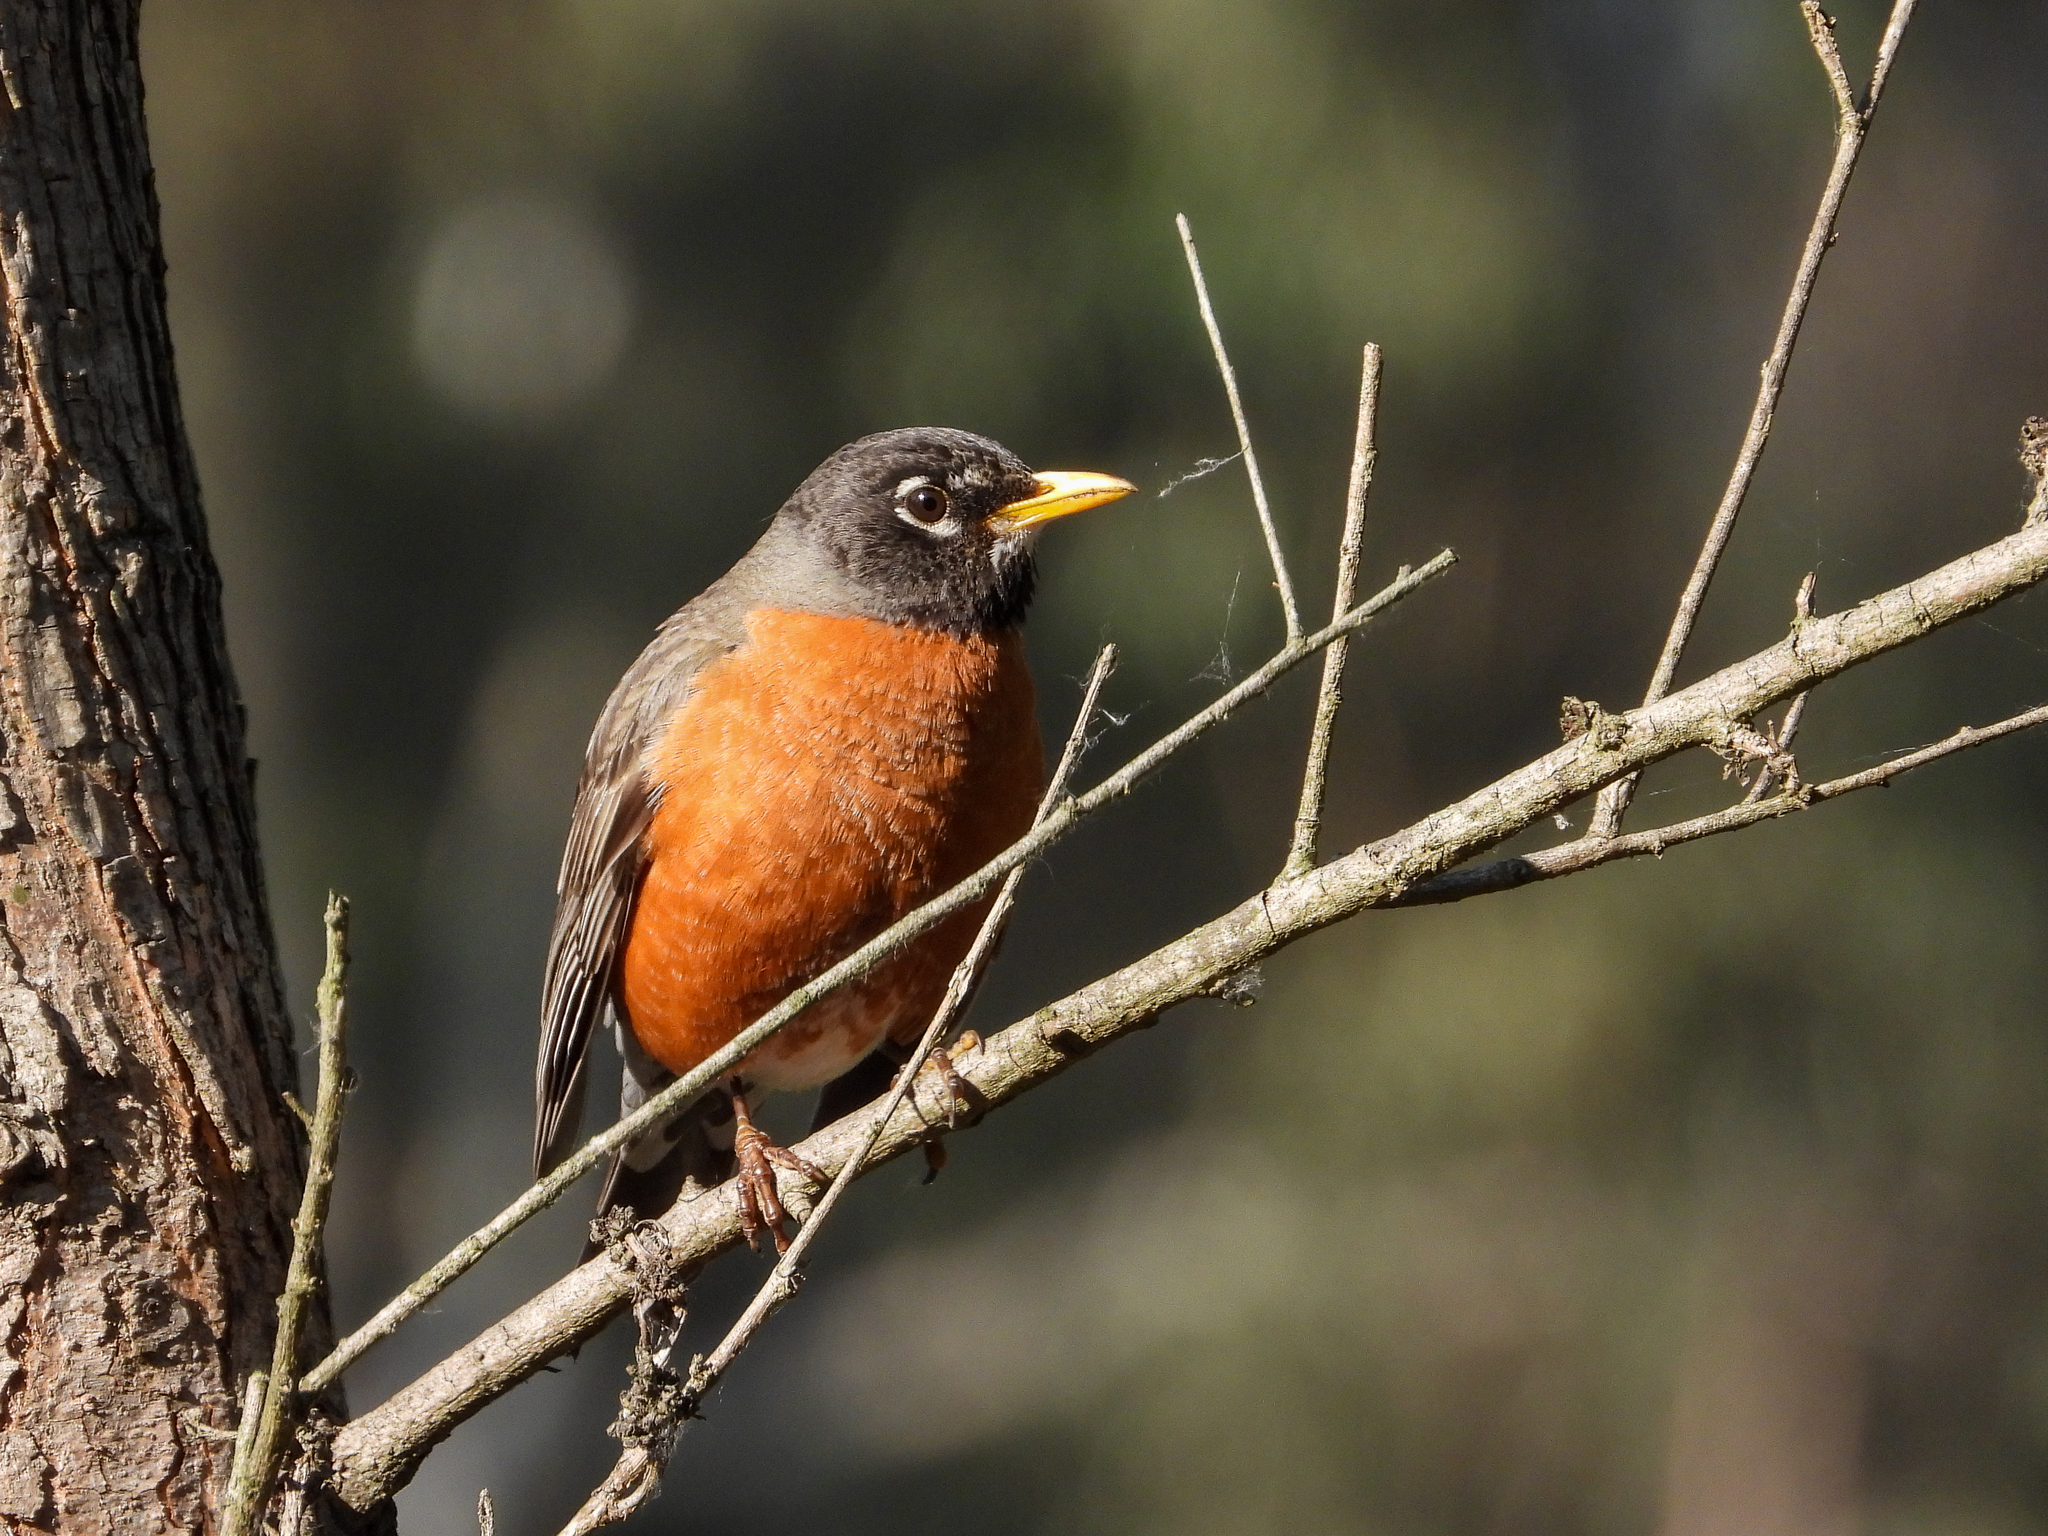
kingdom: Animalia
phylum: Chordata
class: Aves
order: Passeriformes
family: Turdidae
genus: Turdus
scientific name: Turdus migratorius
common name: American robin
